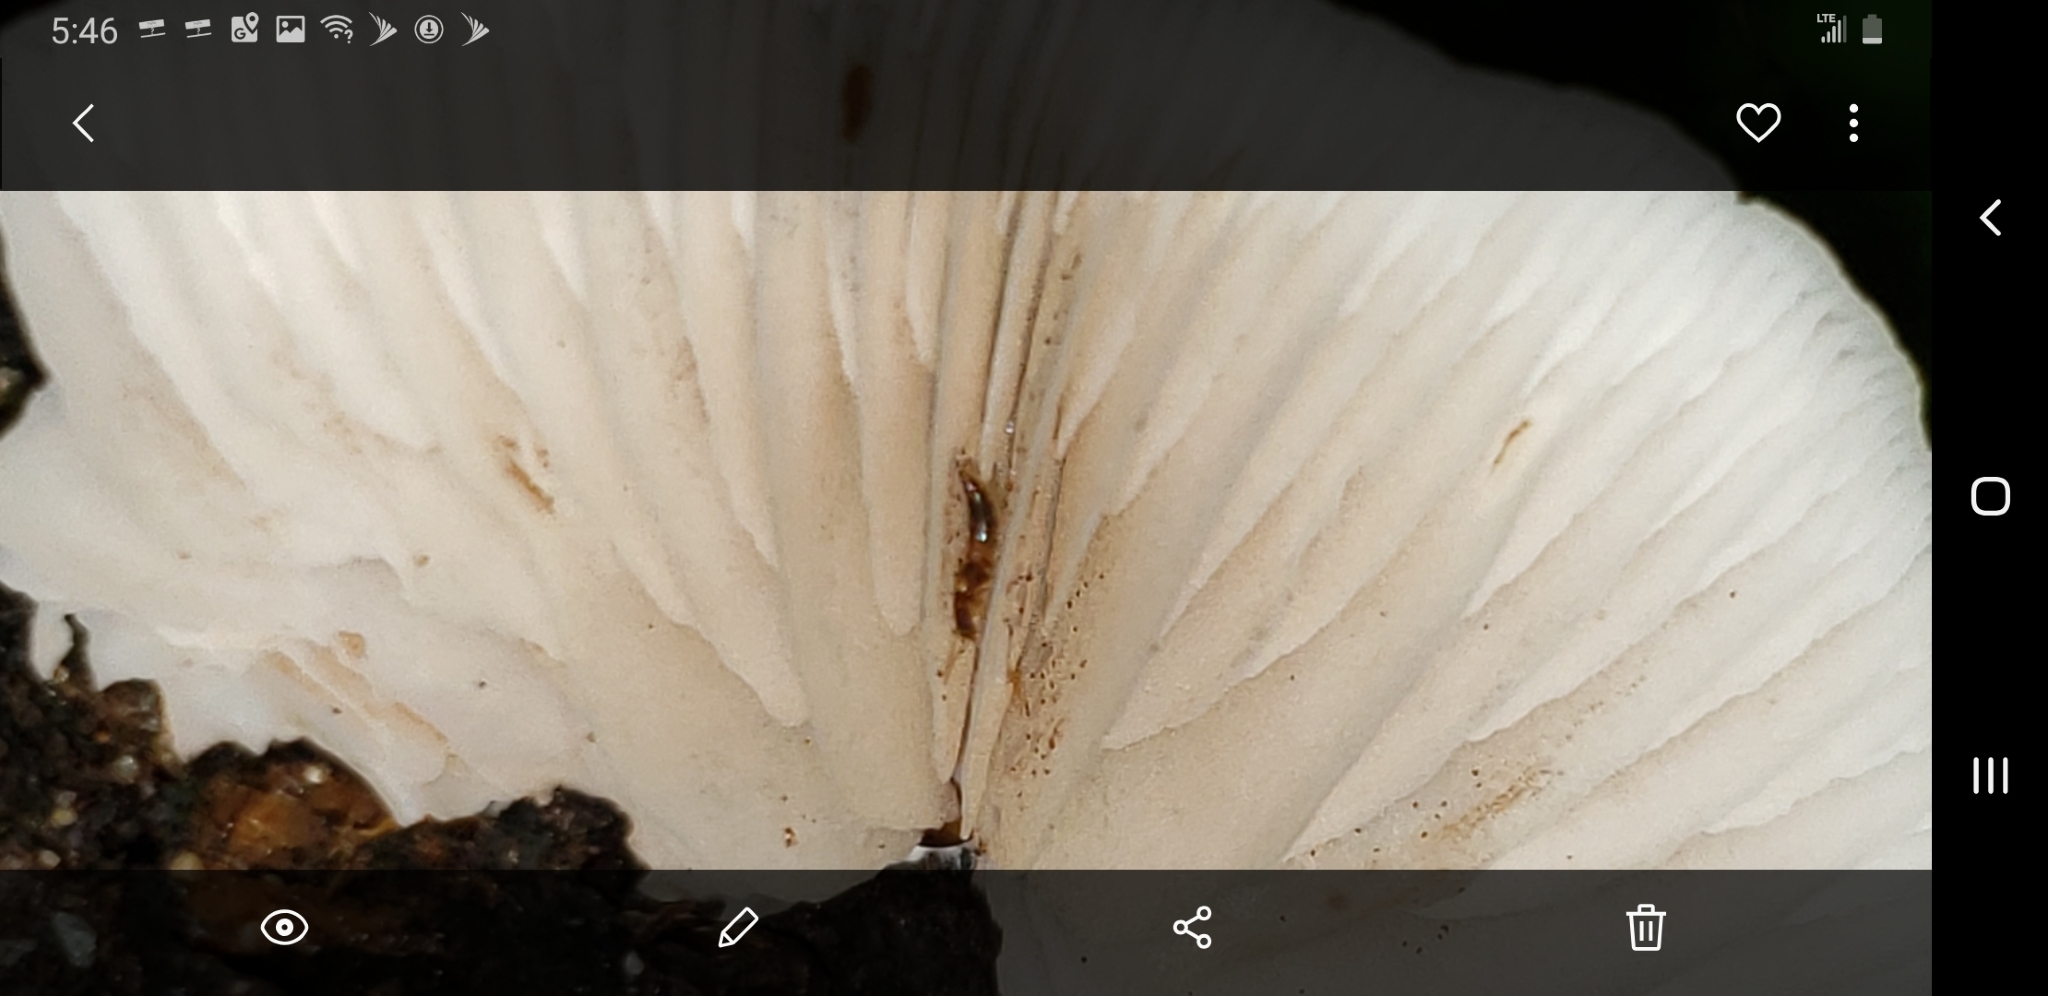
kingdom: Fungi
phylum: Basidiomycota
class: Agaricomycetes
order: Agaricales
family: Crepidotaceae
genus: Crepidotus
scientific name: Crepidotus mollis
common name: Peeling oysterling
